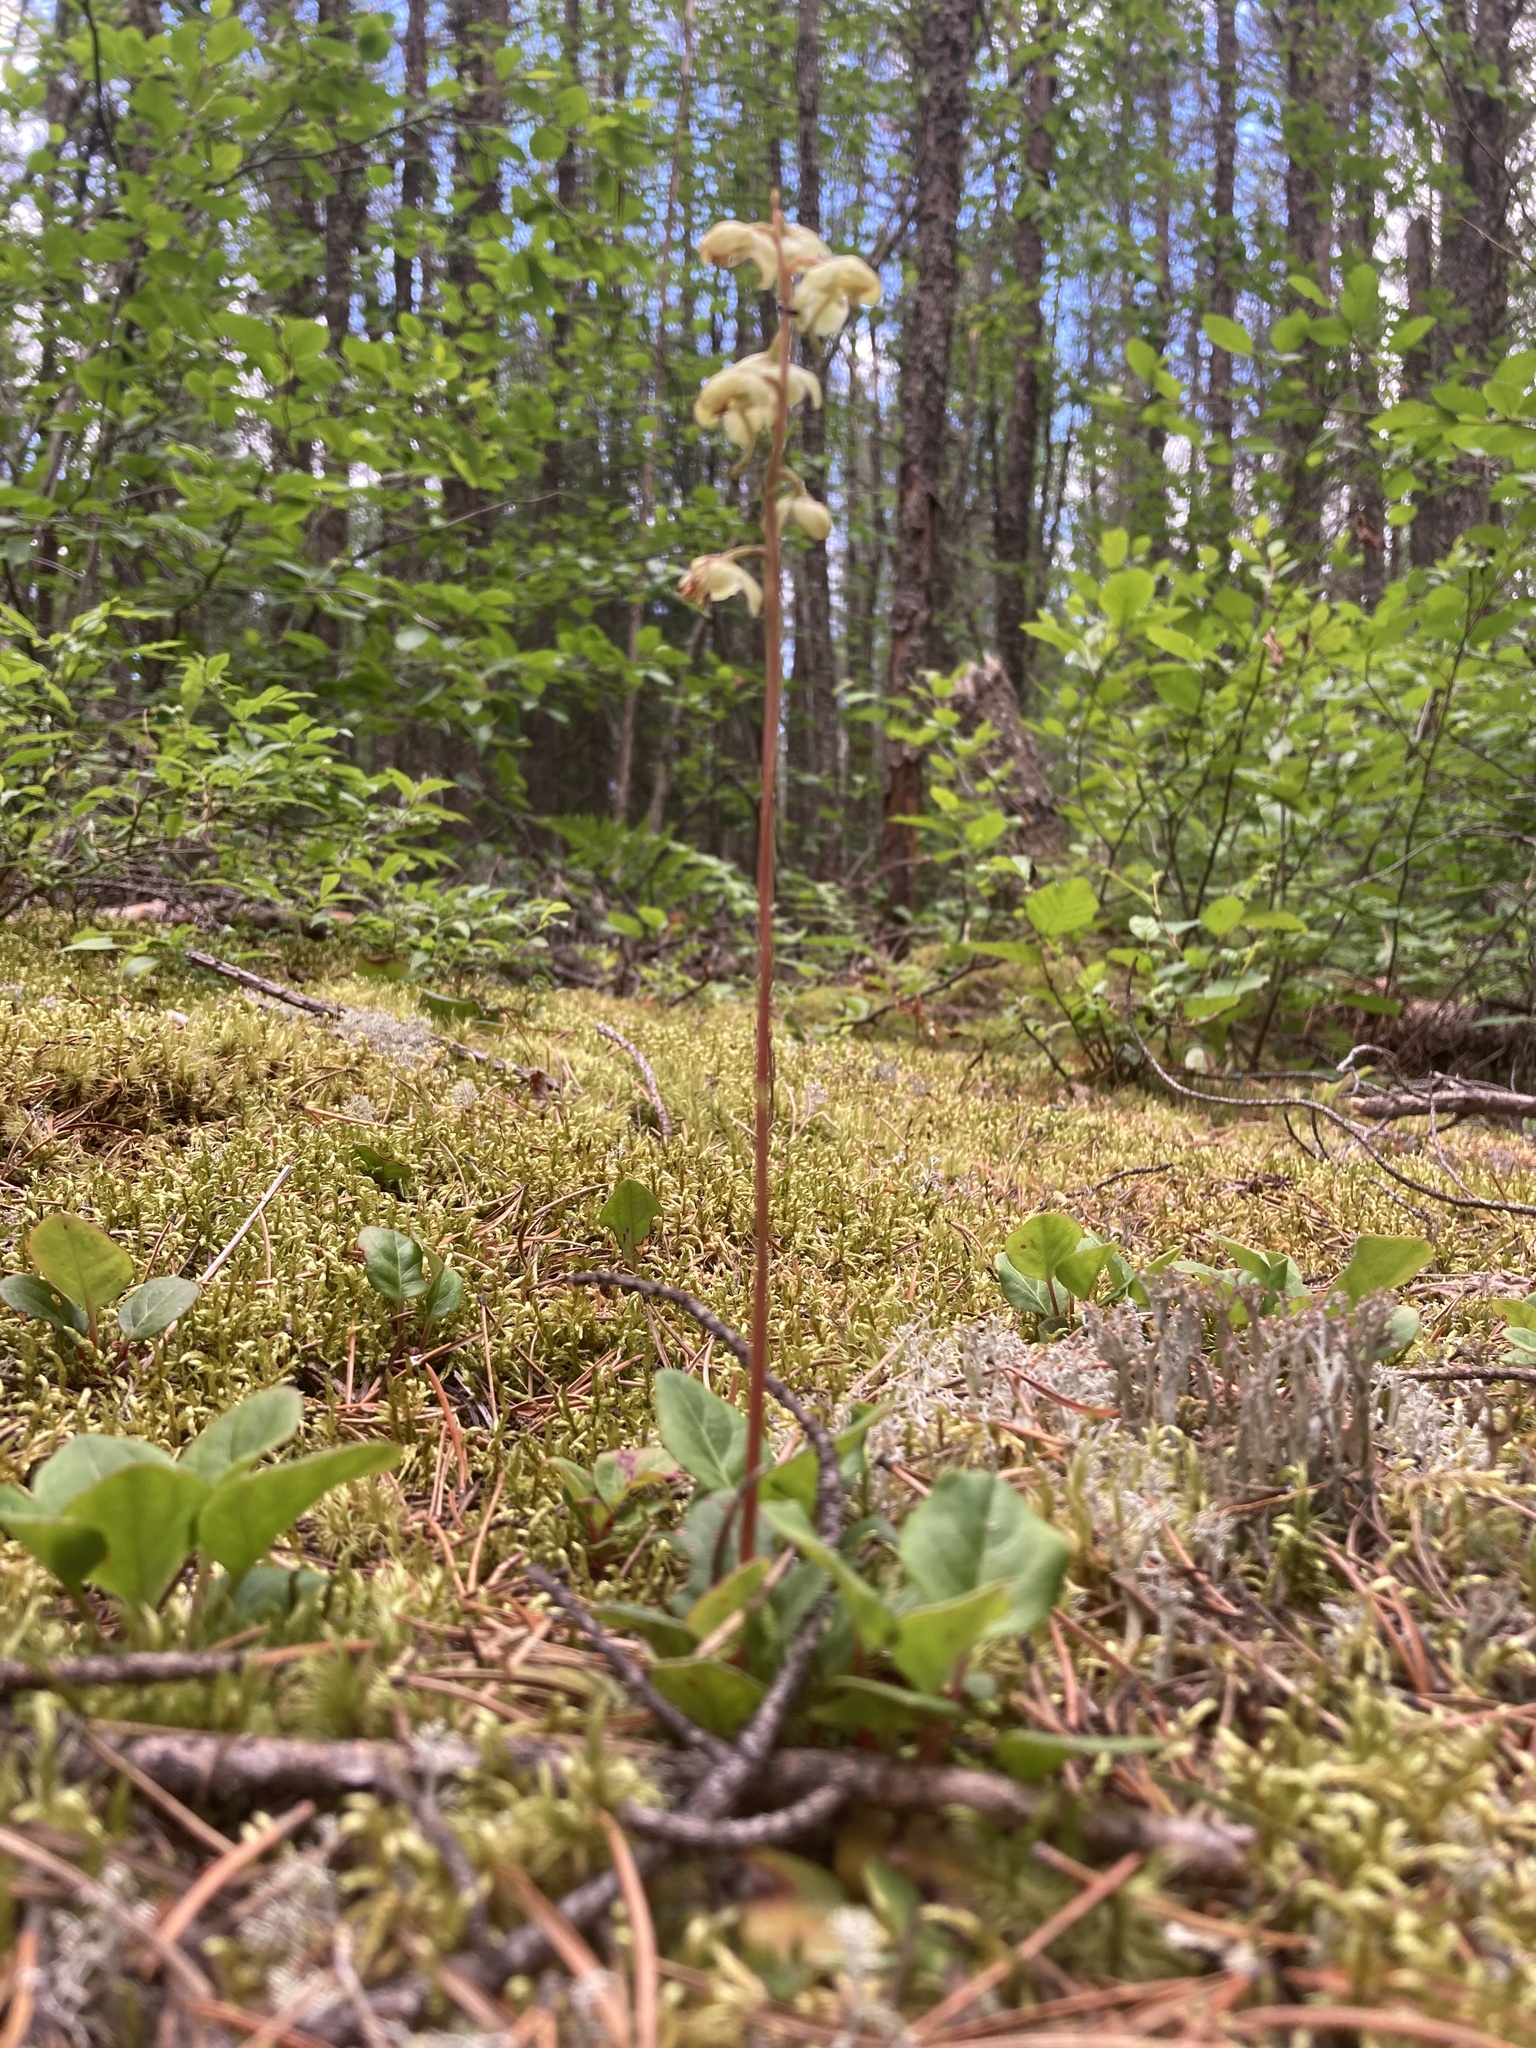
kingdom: Plantae
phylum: Tracheophyta
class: Magnoliopsida
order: Ericales
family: Ericaceae
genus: Pyrola
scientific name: Pyrola chlorantha
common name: Green wintergreen
